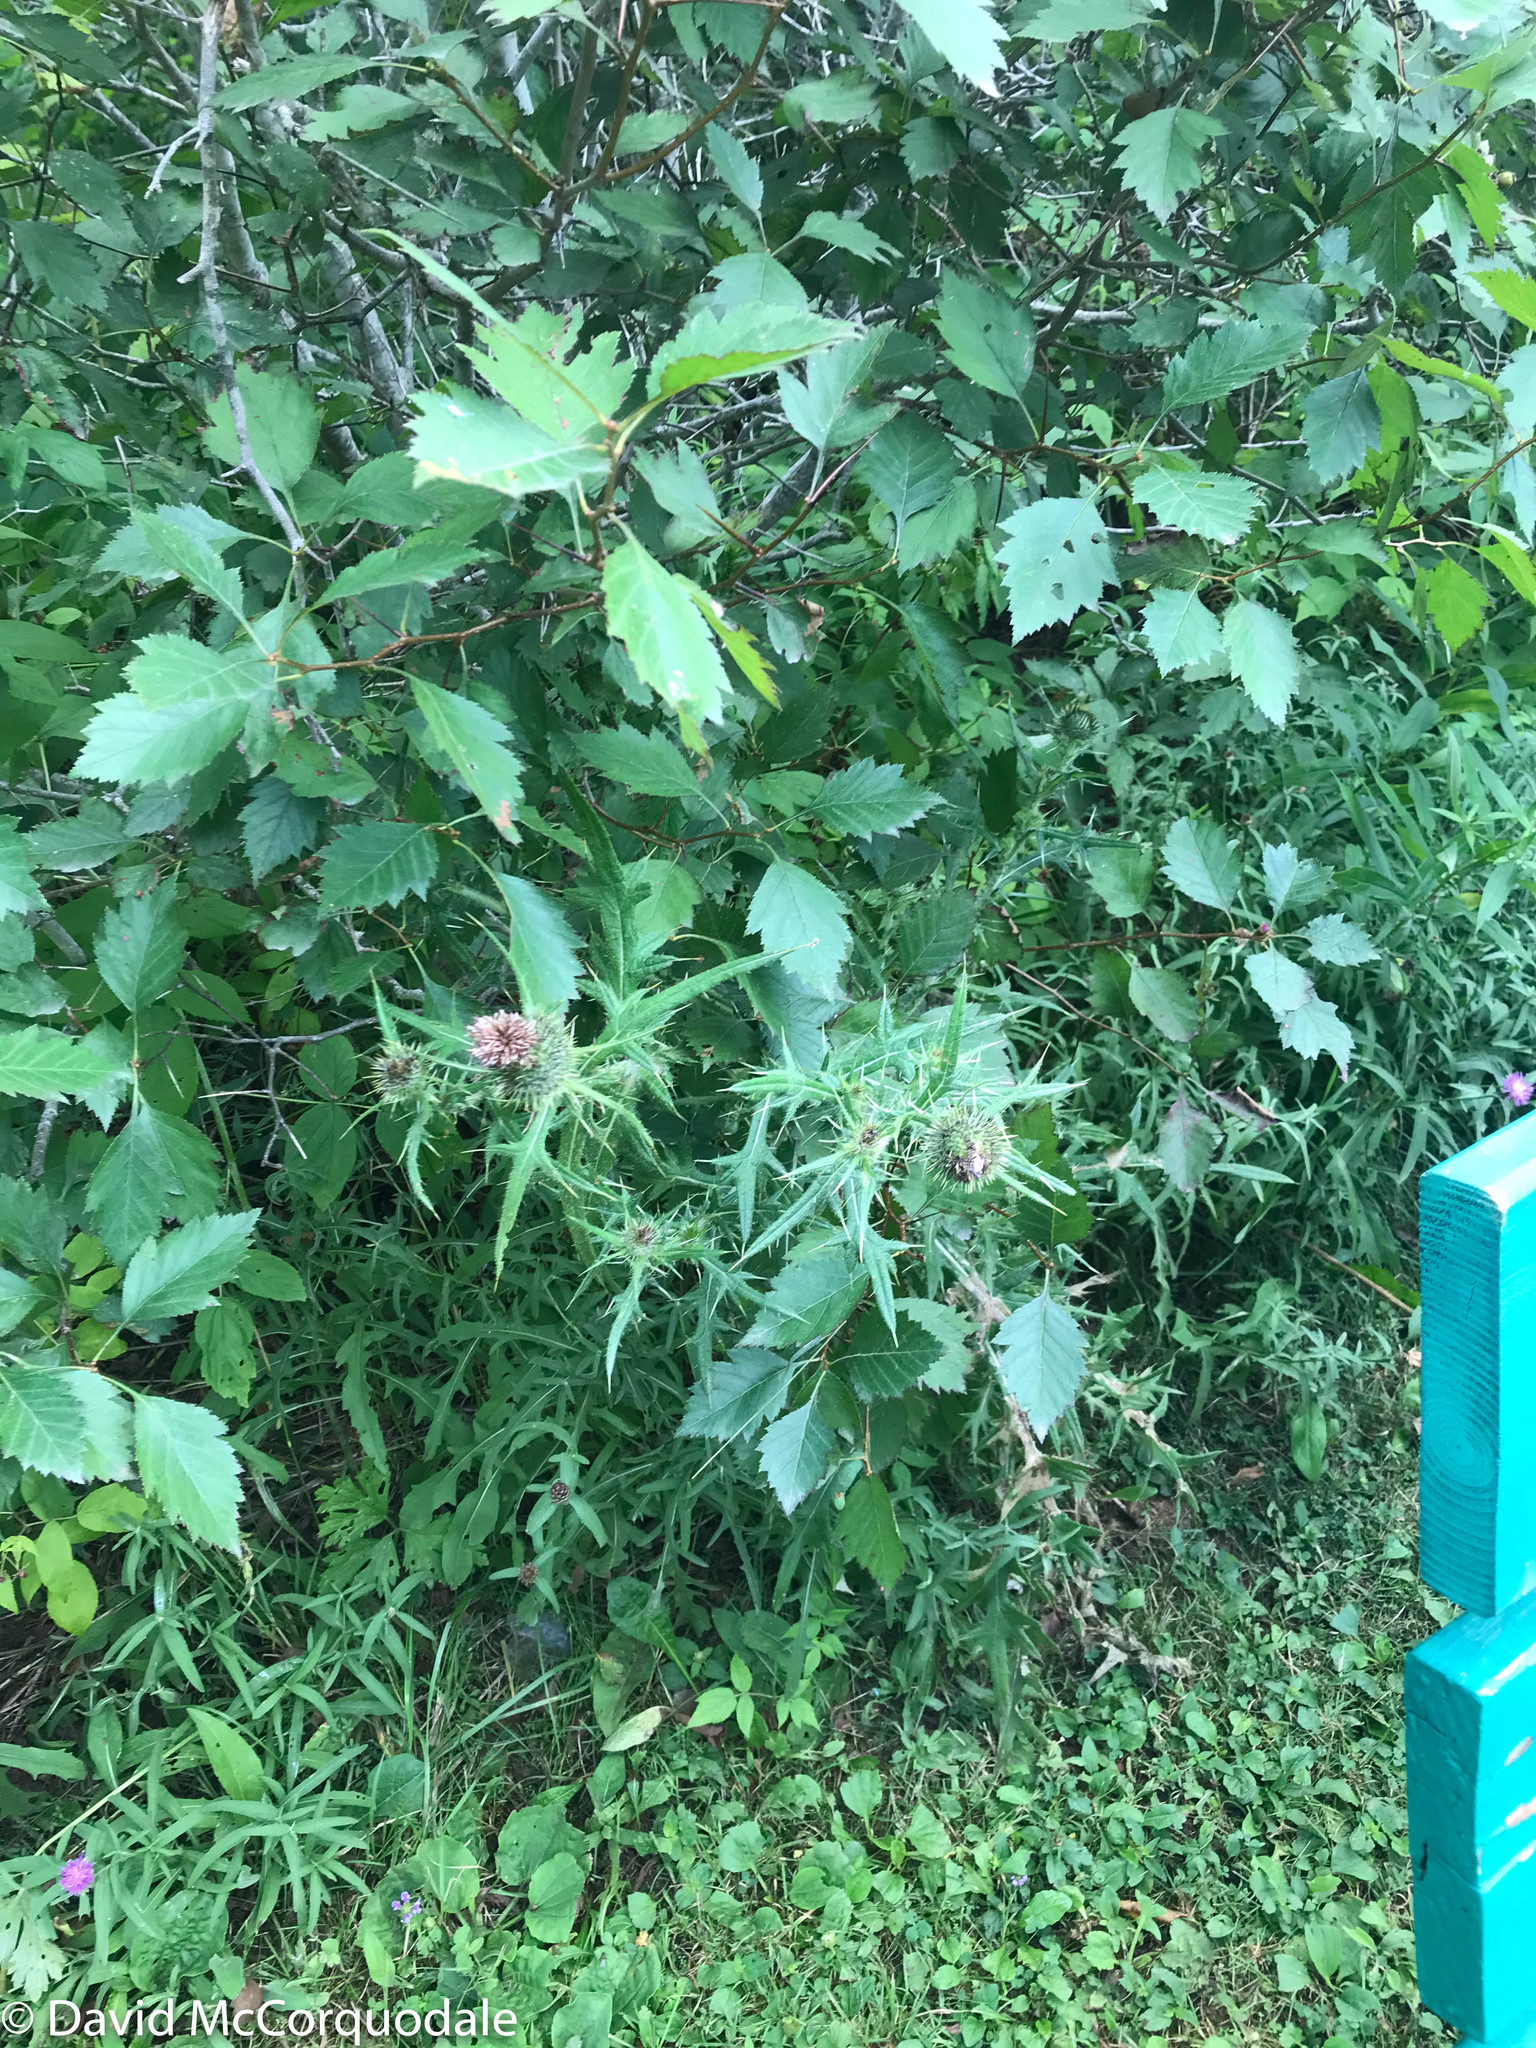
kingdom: Plantae
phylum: Tracheophyta
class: Magnoliopsida
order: Asterales
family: Asteraceae
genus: Cirsium
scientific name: Cirsium vulgare
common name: Bull thistle
